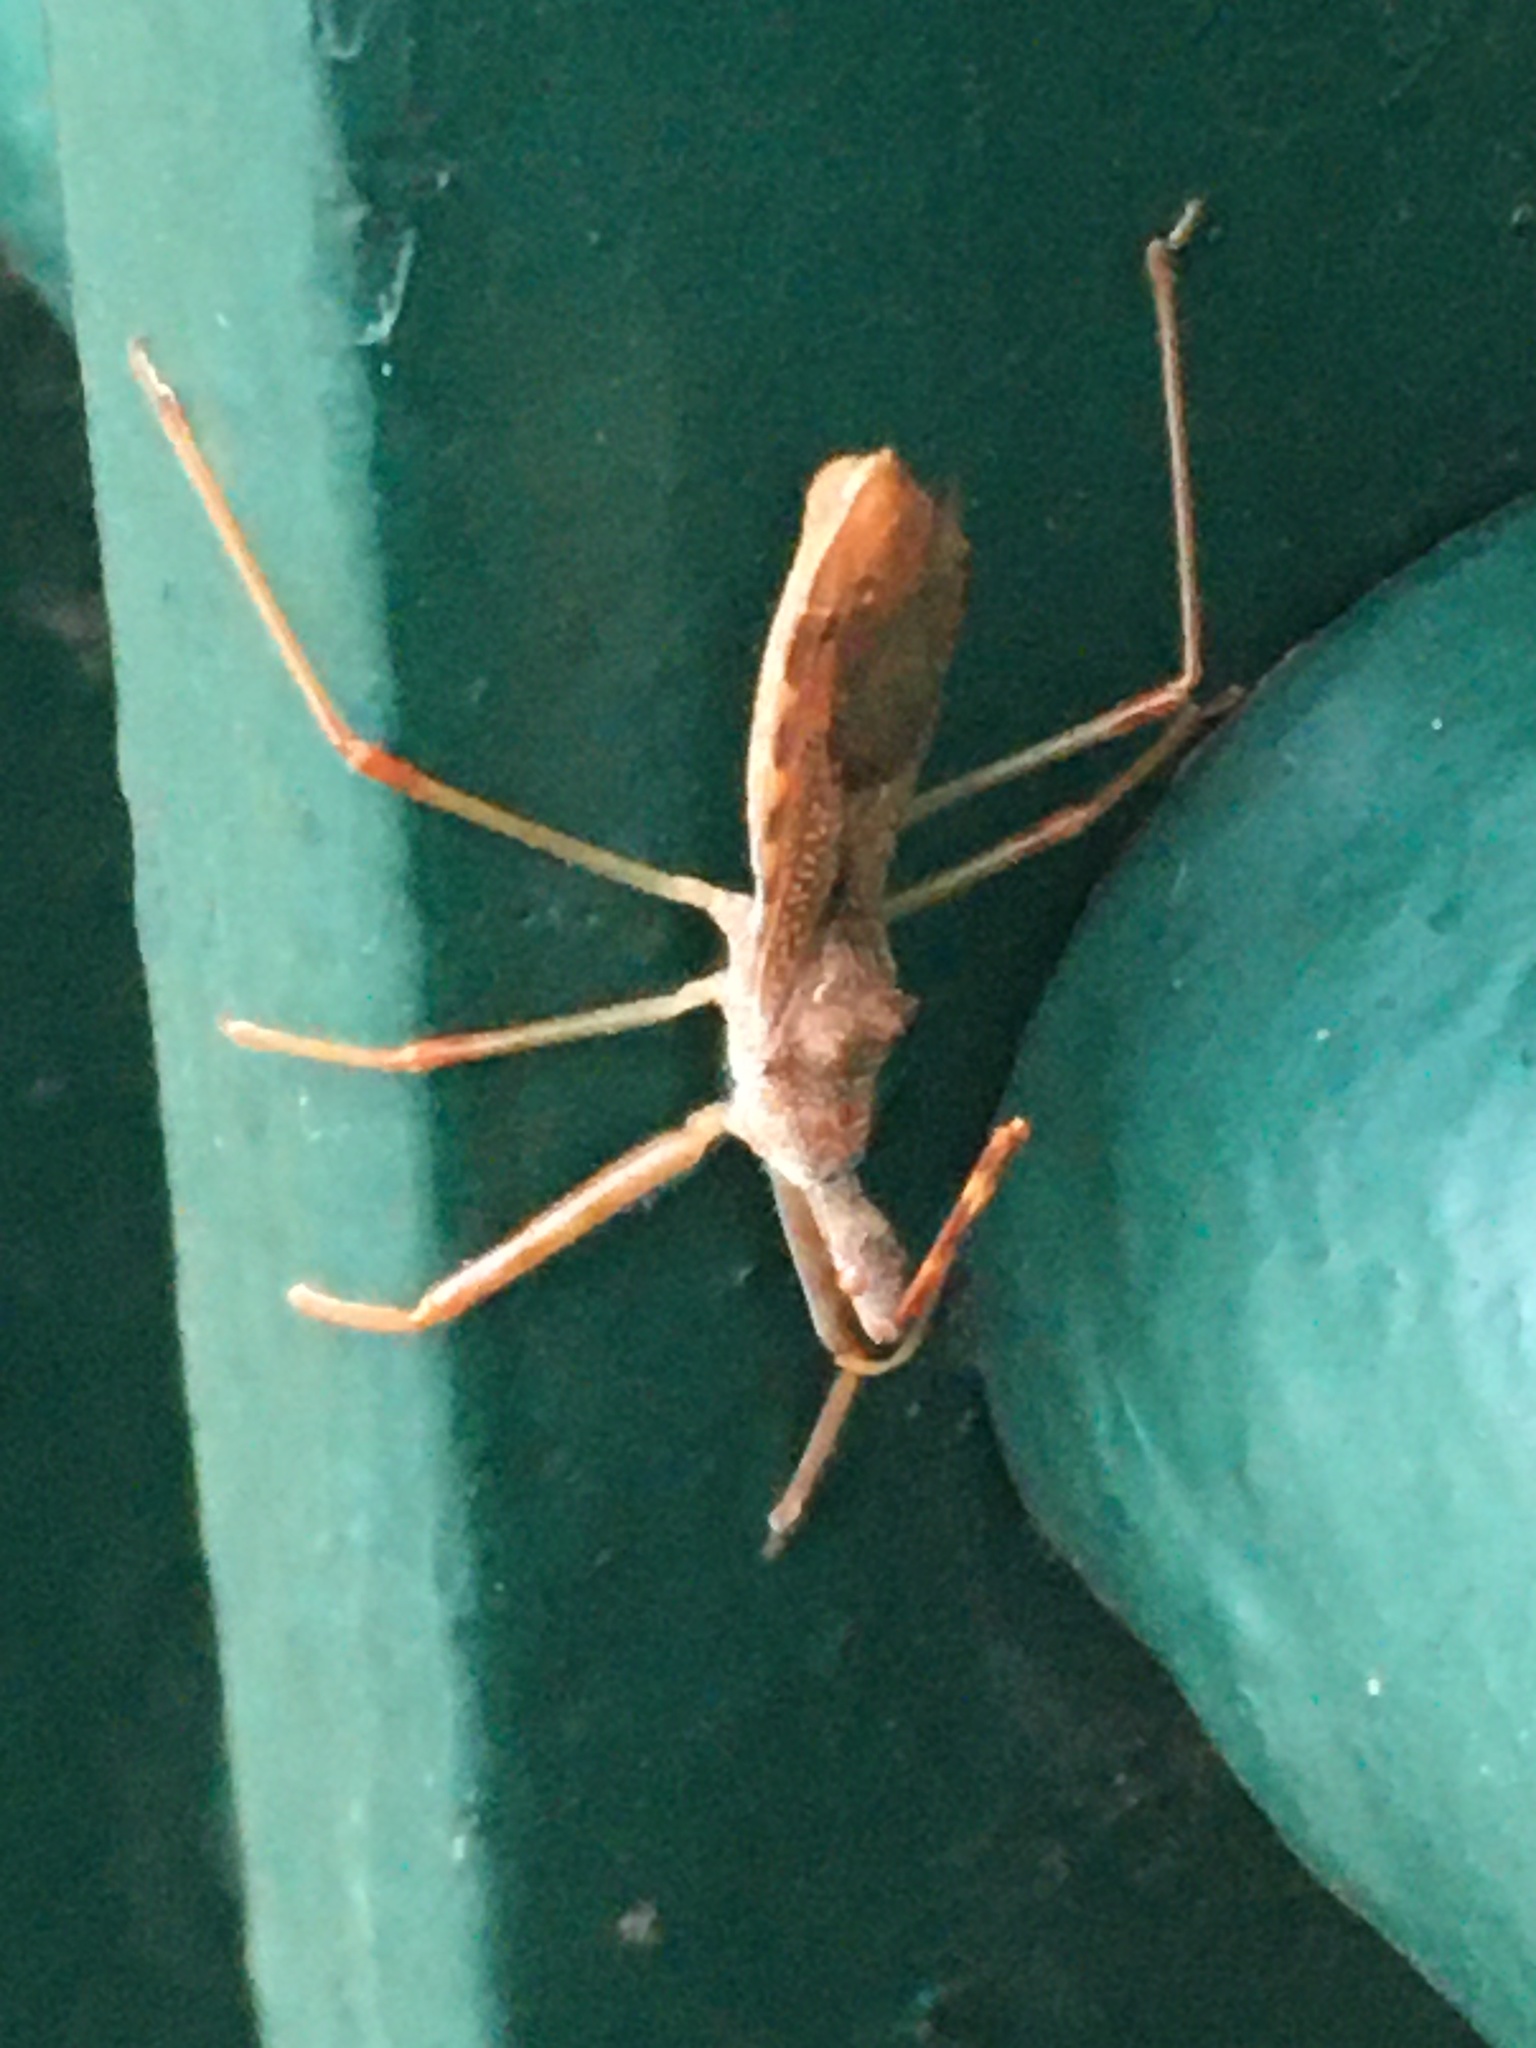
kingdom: Animalia
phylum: Arthropoda
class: Insecta
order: Hemiptera
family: Reduviidae
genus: Nagusta
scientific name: Nagusta goedelii
